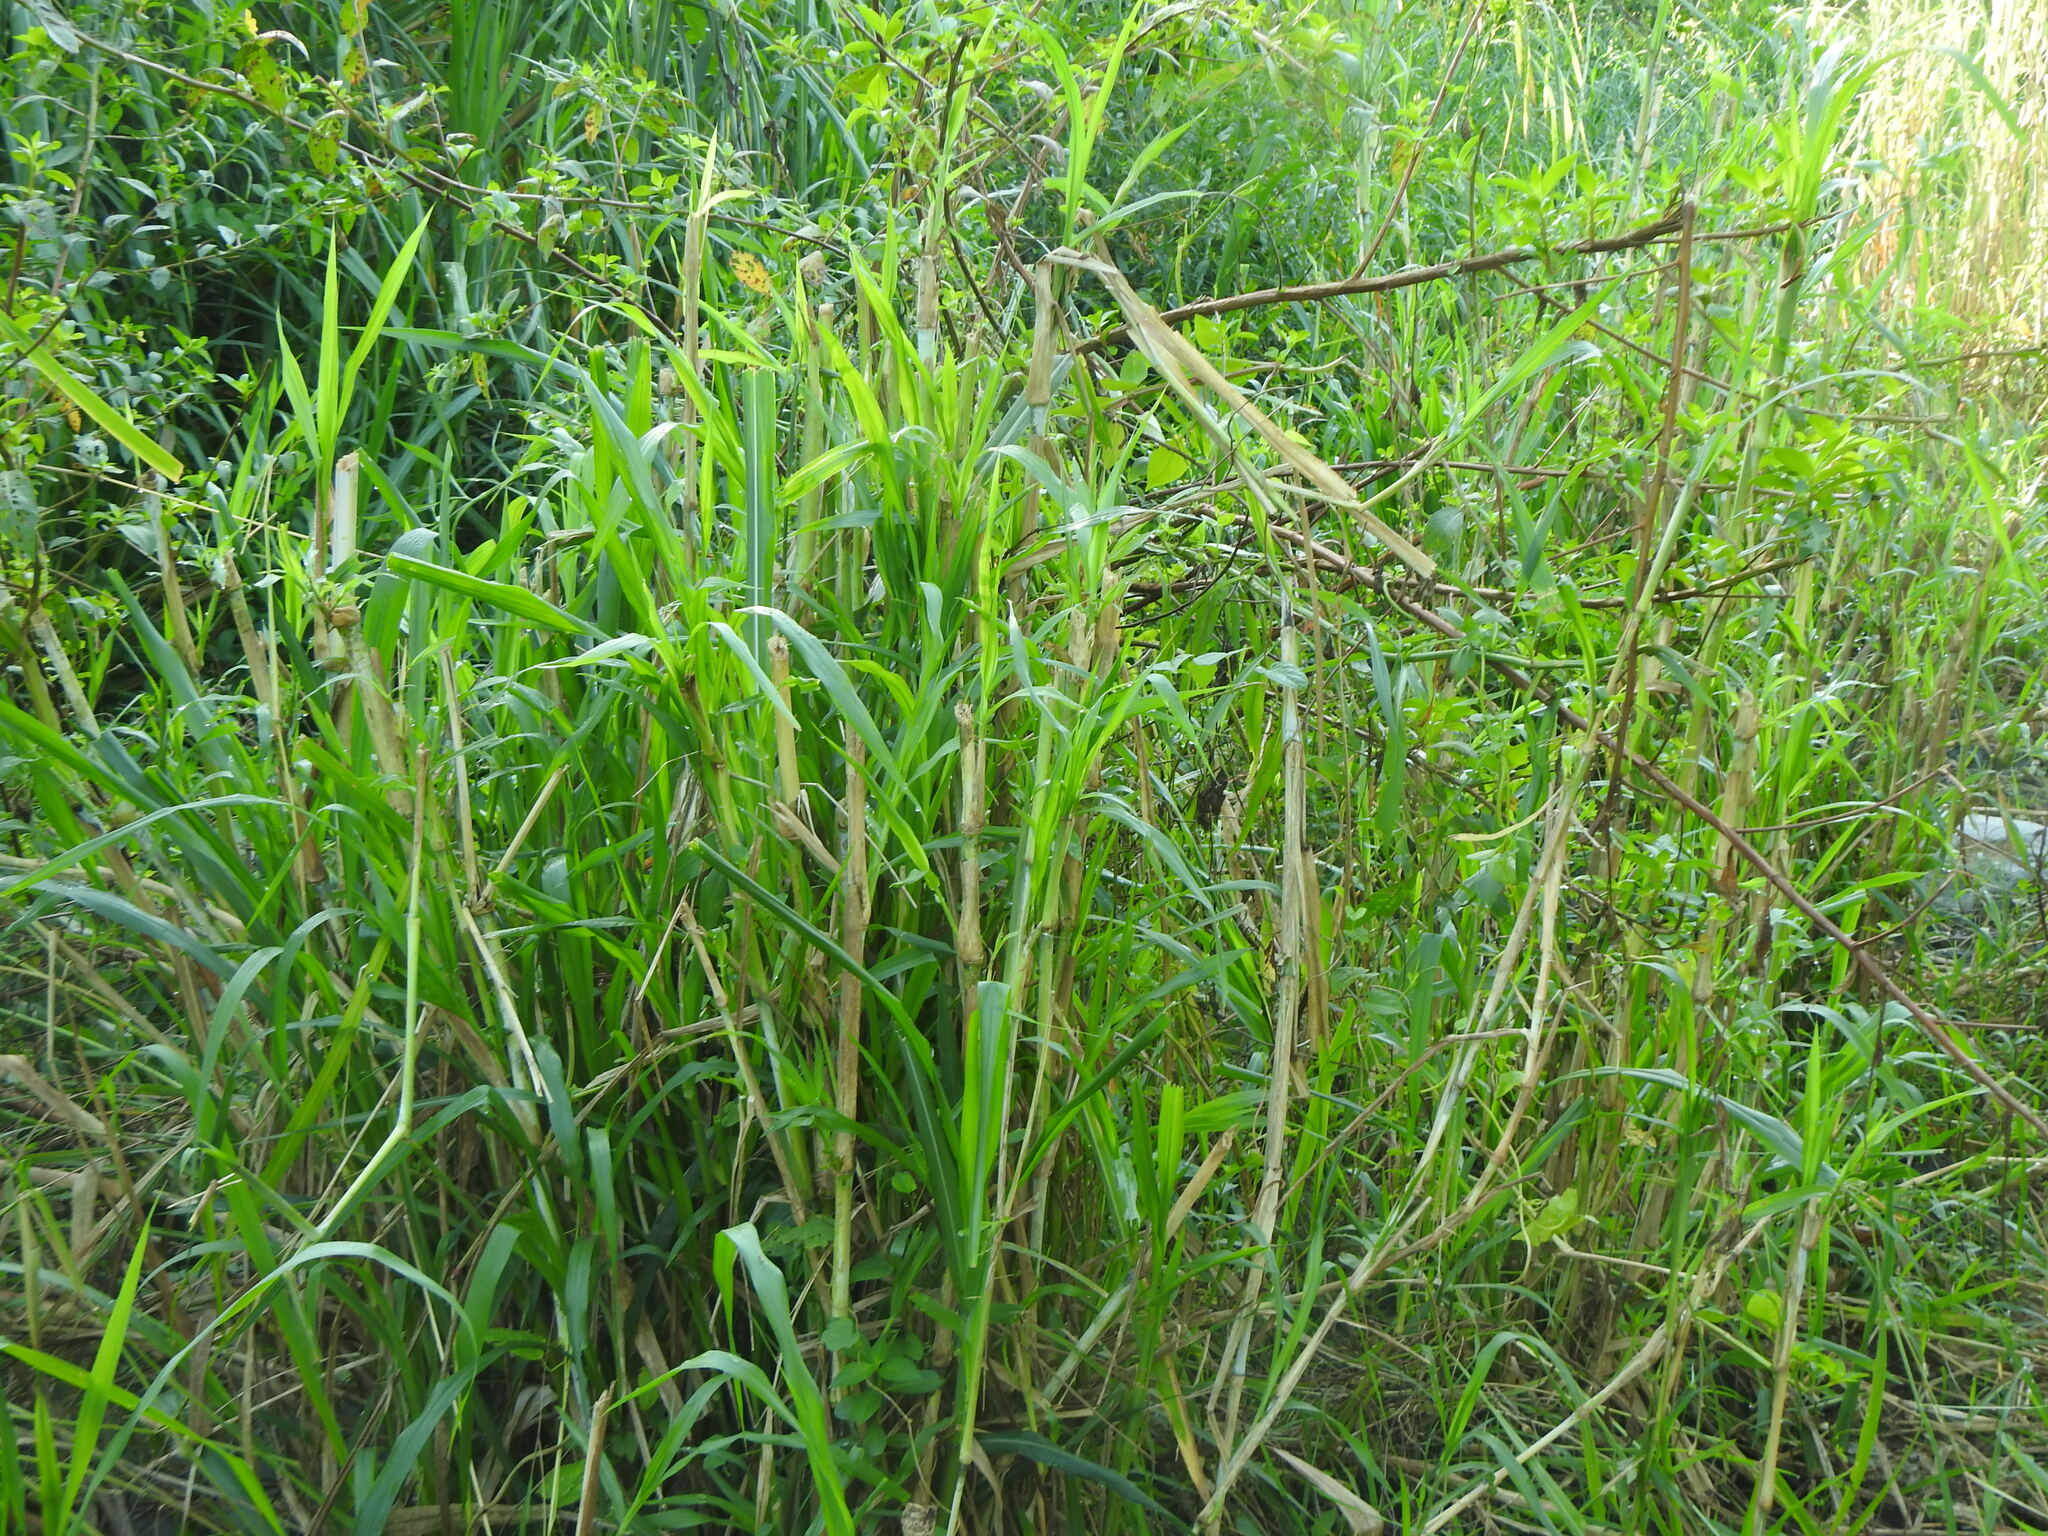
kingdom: Plantae
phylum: Tracheophyta
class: Liliopsida
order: Poales
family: Poaceae
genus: Cenchrus
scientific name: Cenchrus purpureus
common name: Elephant grass
